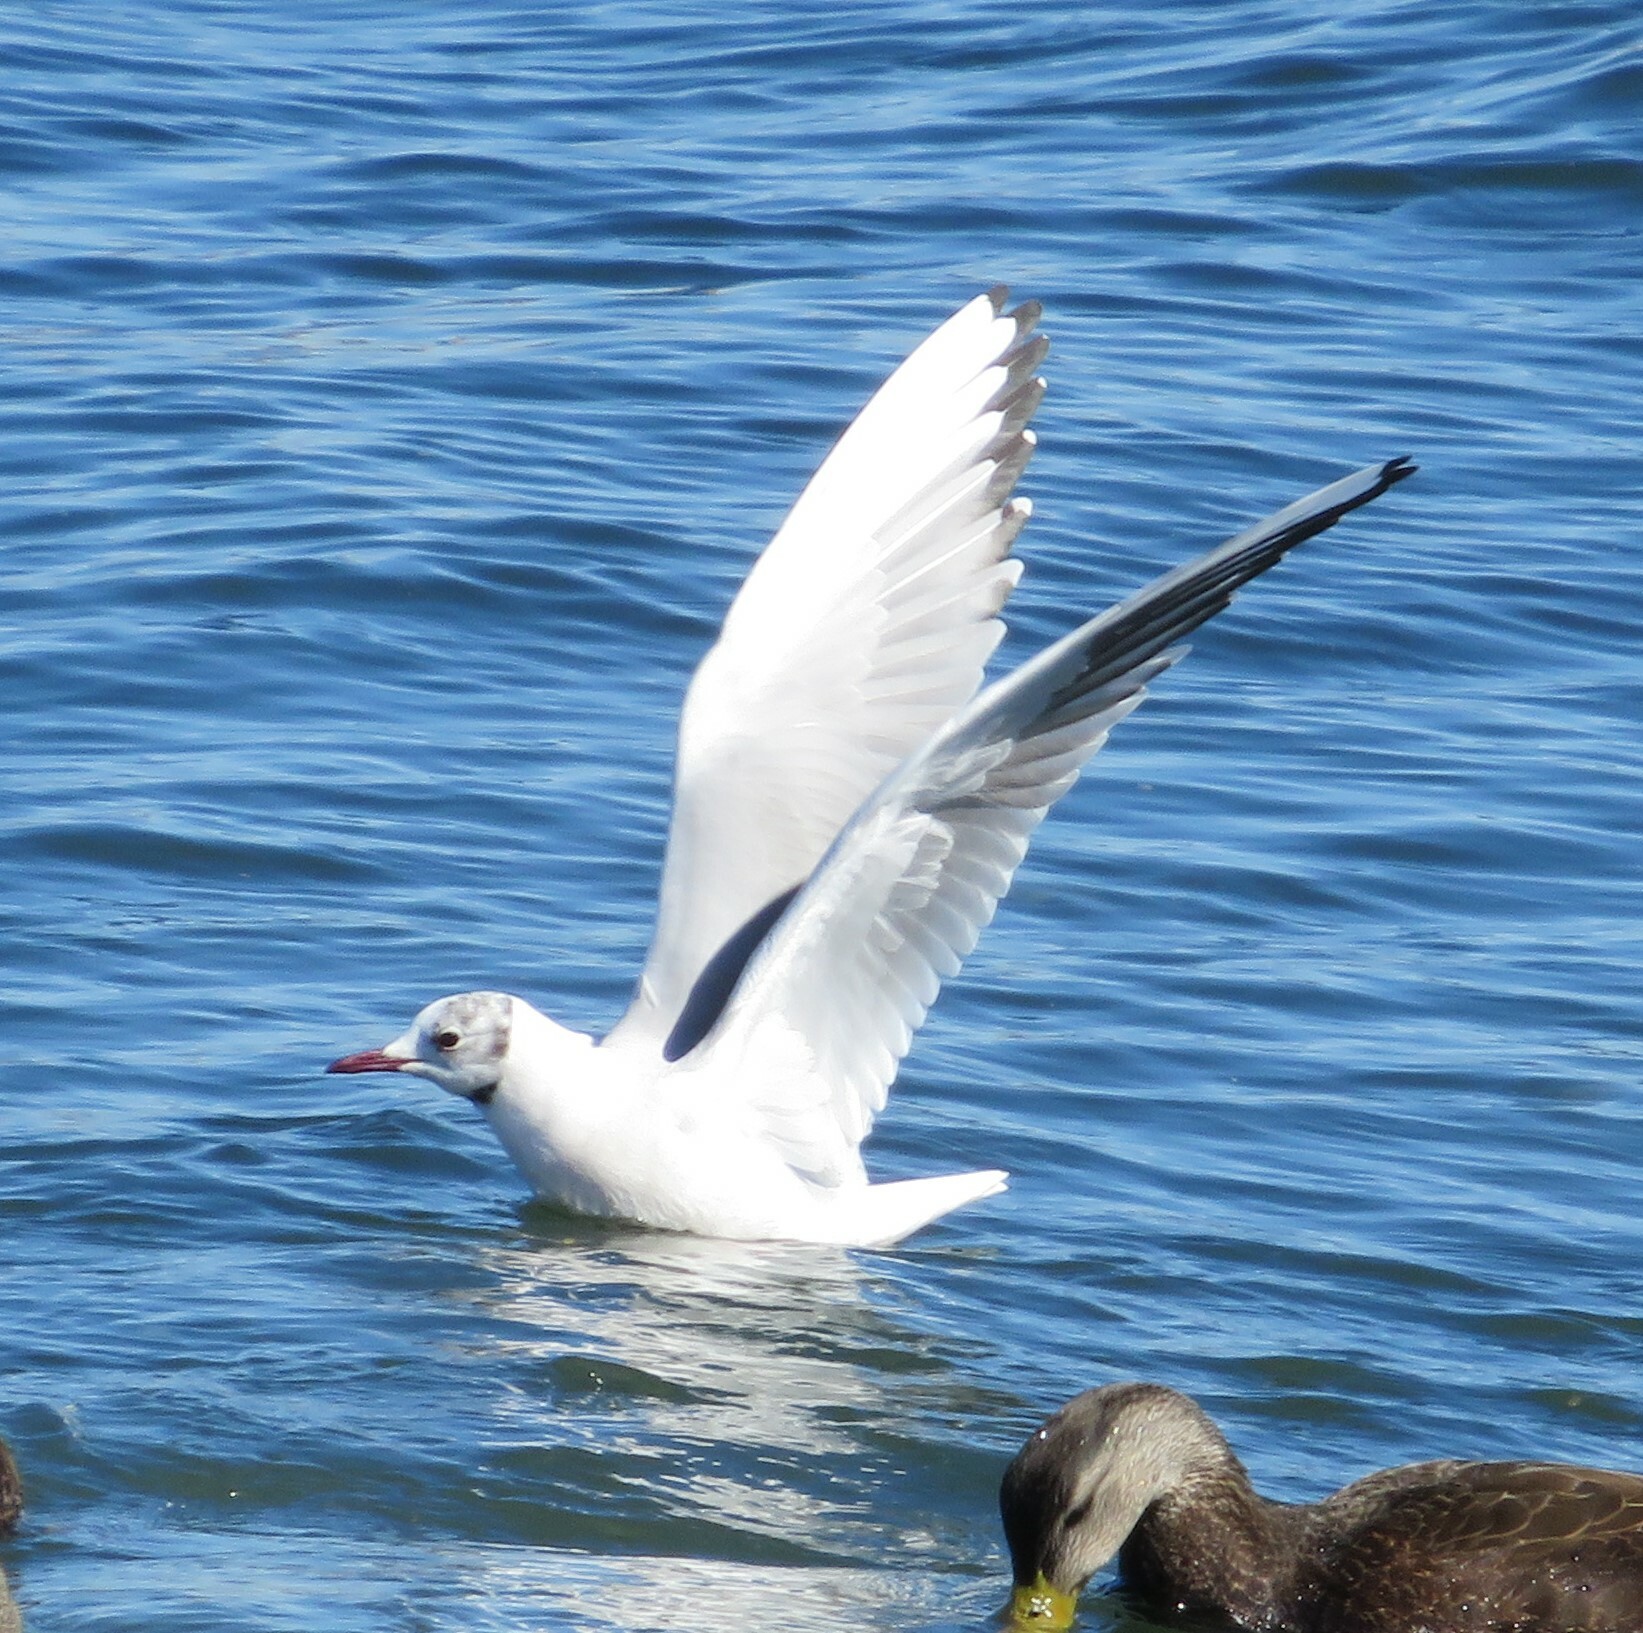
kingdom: Animalia
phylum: Chordata
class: Aves
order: Charadriiformes
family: Laridae
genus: Chroicocephalus
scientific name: Chroicocephalus ridibundus
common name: Black-headed gull
